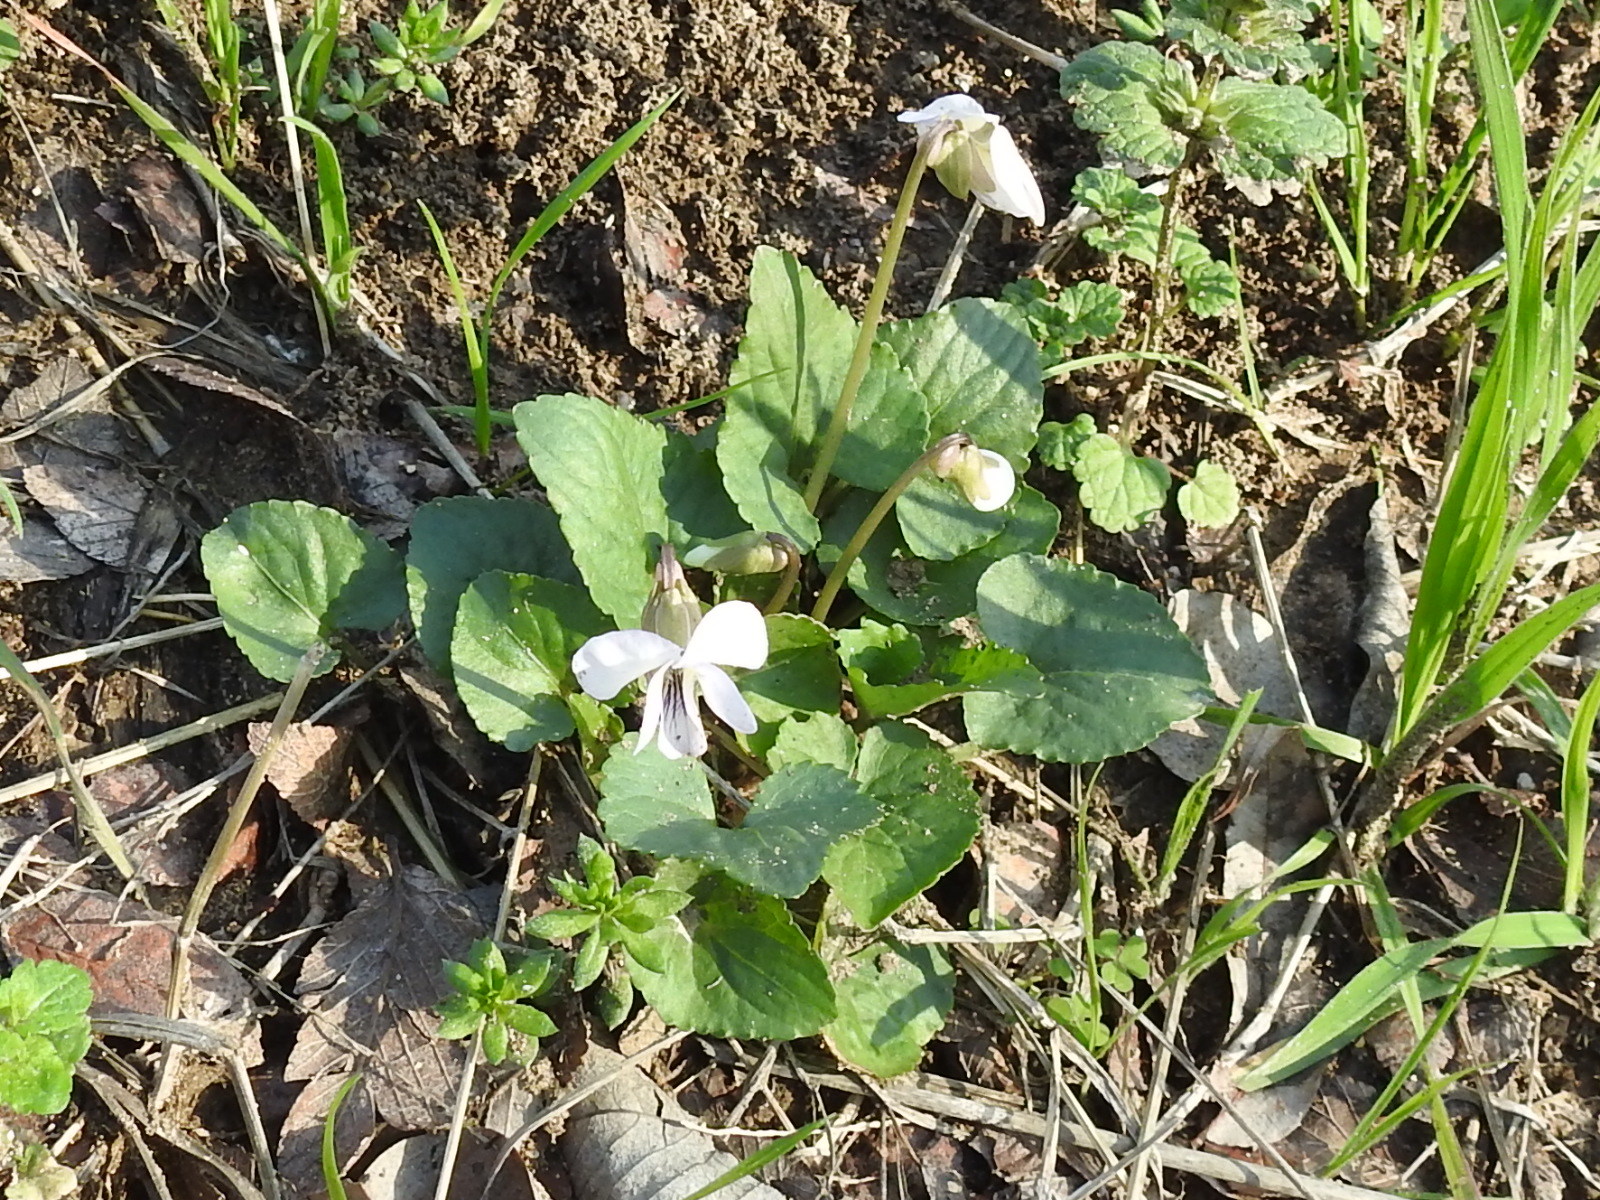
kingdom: Plantae
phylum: Tracheophyta
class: Magnoliopsida
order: Malpighiales
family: Violaceae
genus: Viola
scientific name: Viola sororia
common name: Dooryard violet
